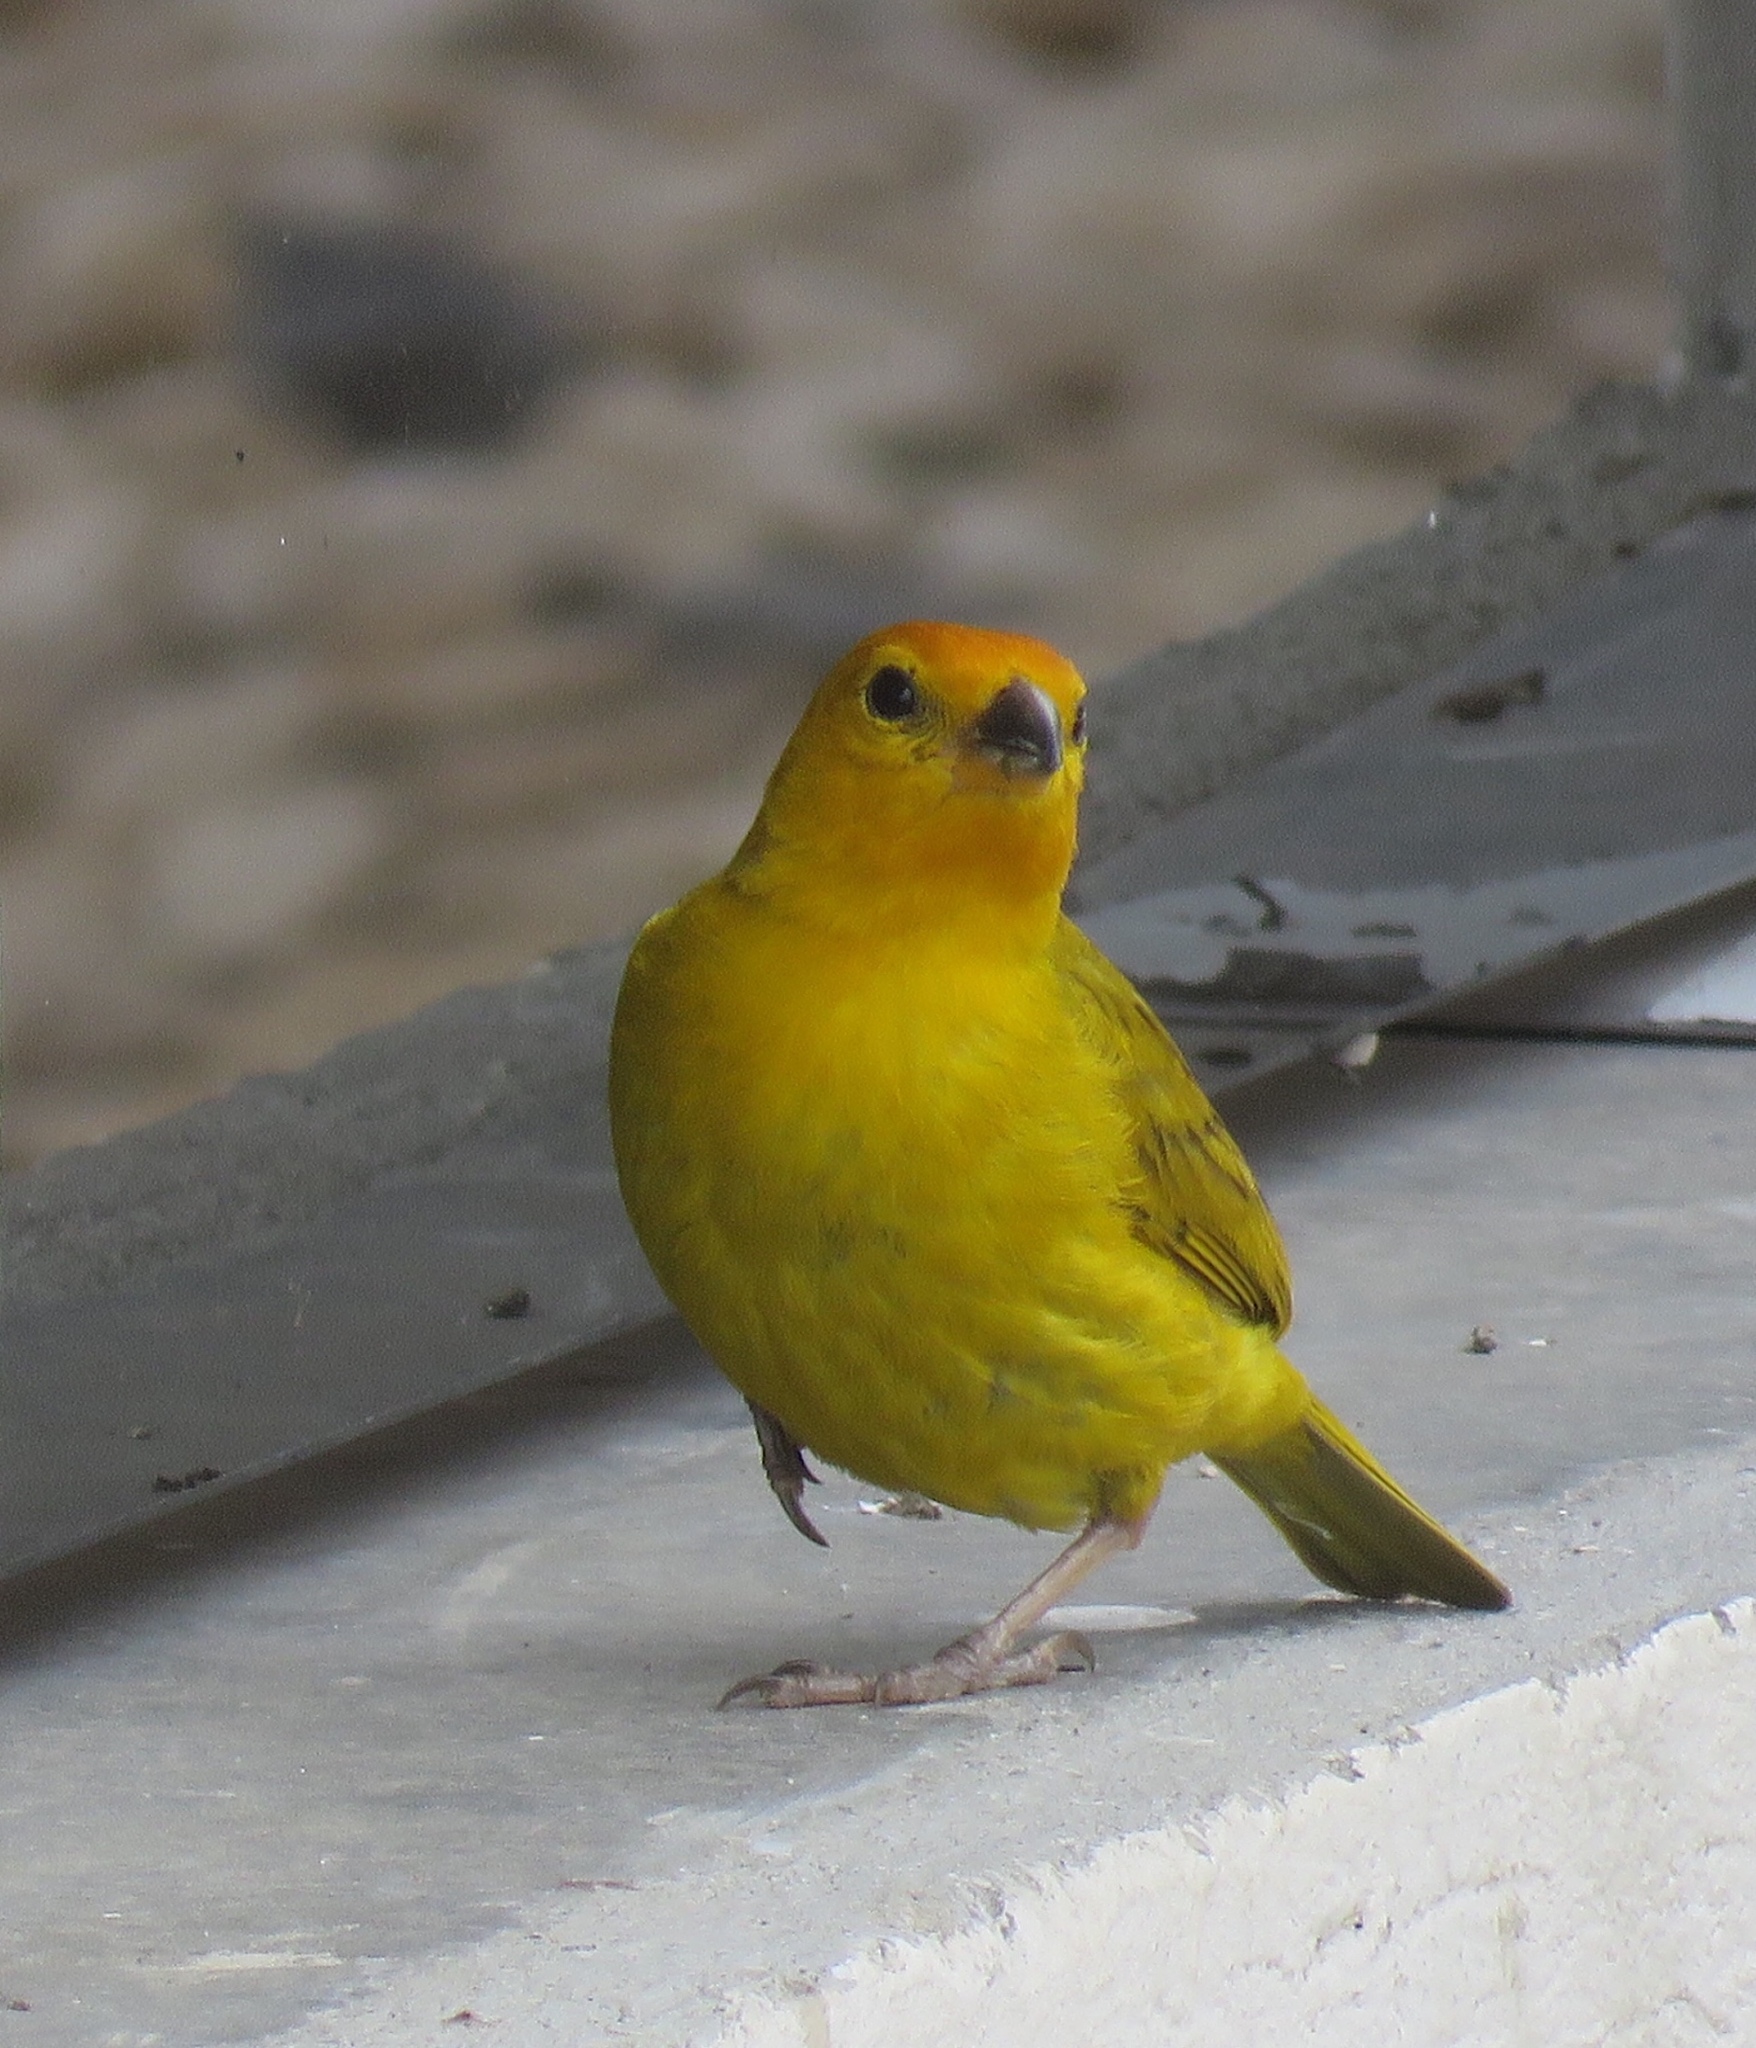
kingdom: Animalia
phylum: Chordata
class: Aves
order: Passeriformes
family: Thraupidae
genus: Sicalis
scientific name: Sicalis flaveola
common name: Saffron finch
